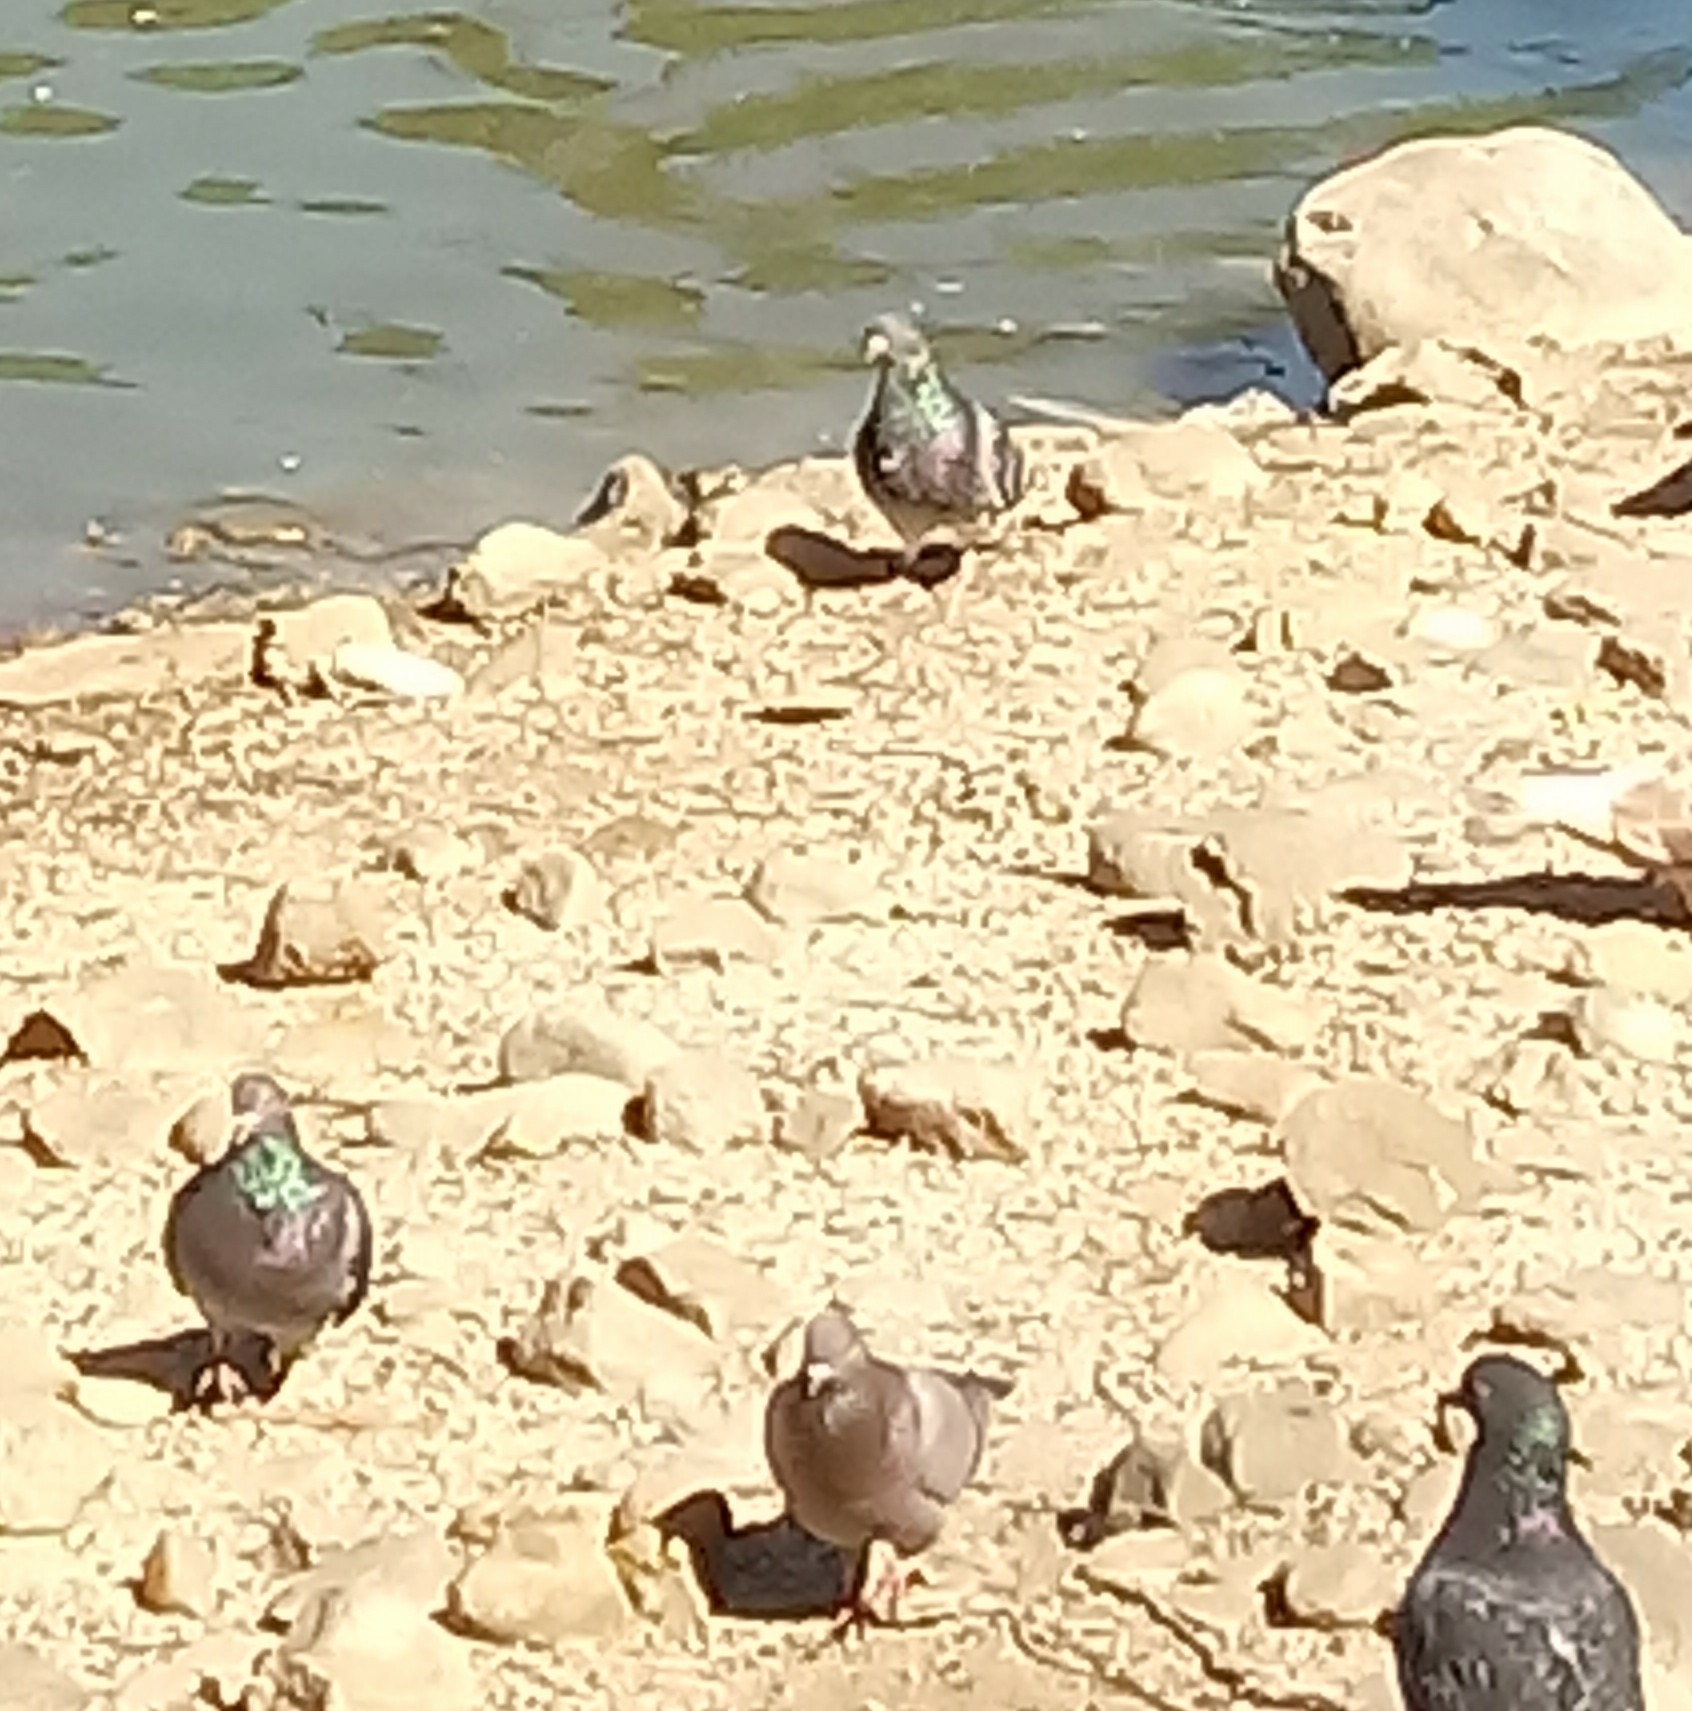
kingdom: Animalia
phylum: Chordata
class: Aves
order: Columbiformes
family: Columbidae
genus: Columba
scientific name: Columba livia
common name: Rock pigeon
